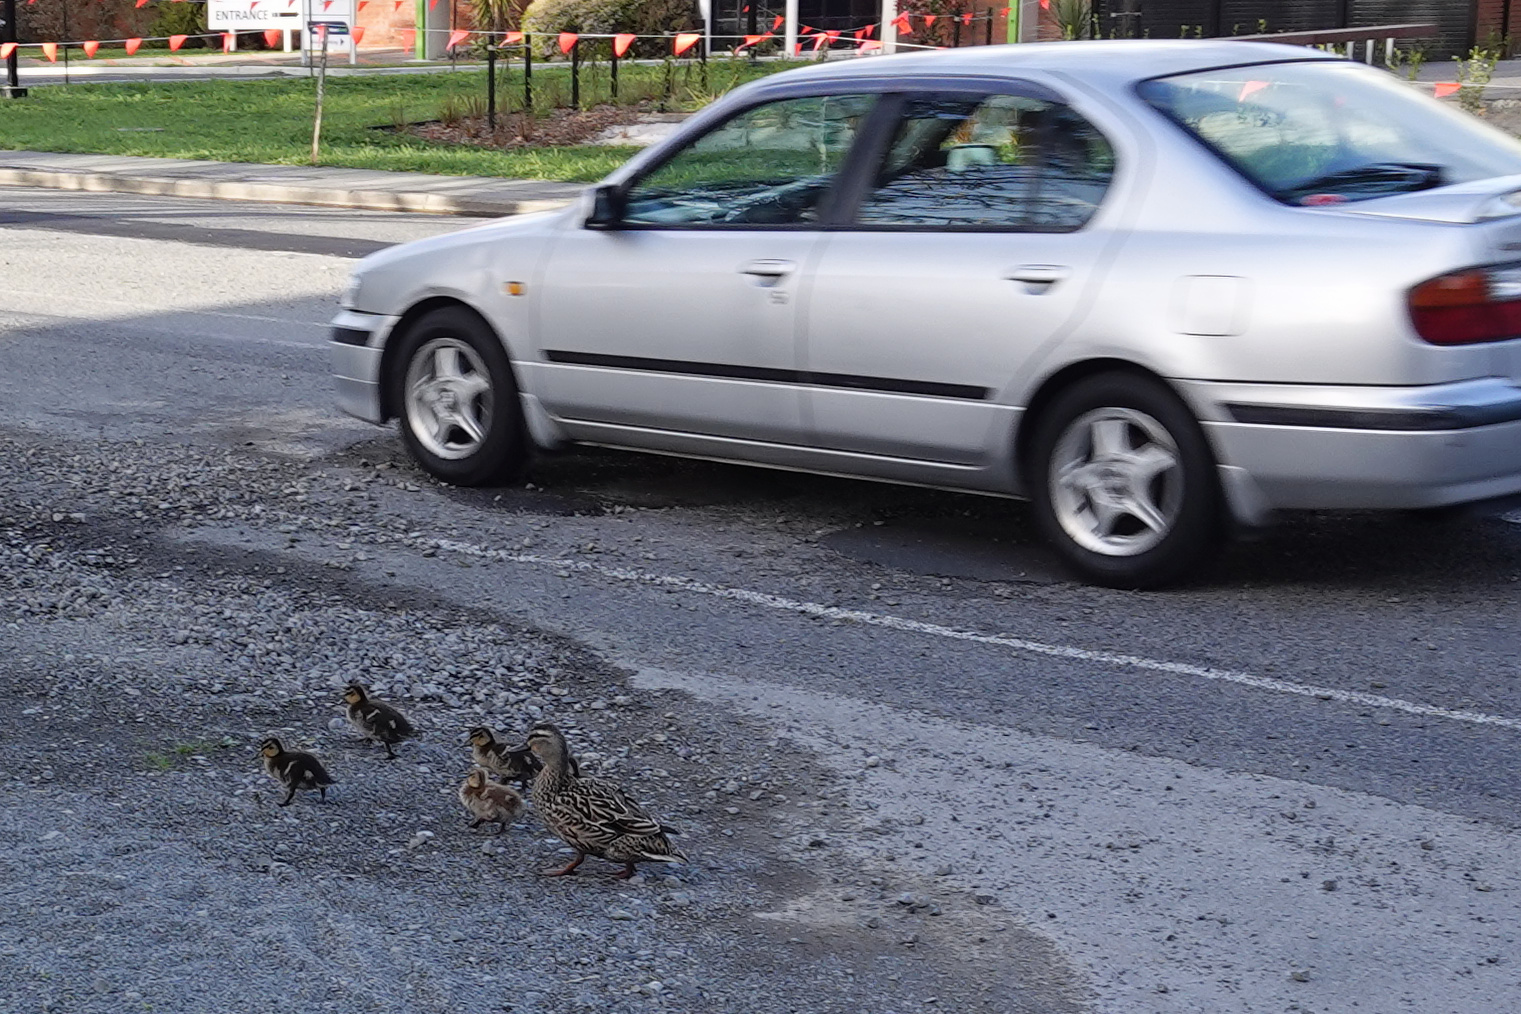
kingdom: Animalia
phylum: Chordata
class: Aves
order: Anseriformes
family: Anatidae
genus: Anas
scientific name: Anas
